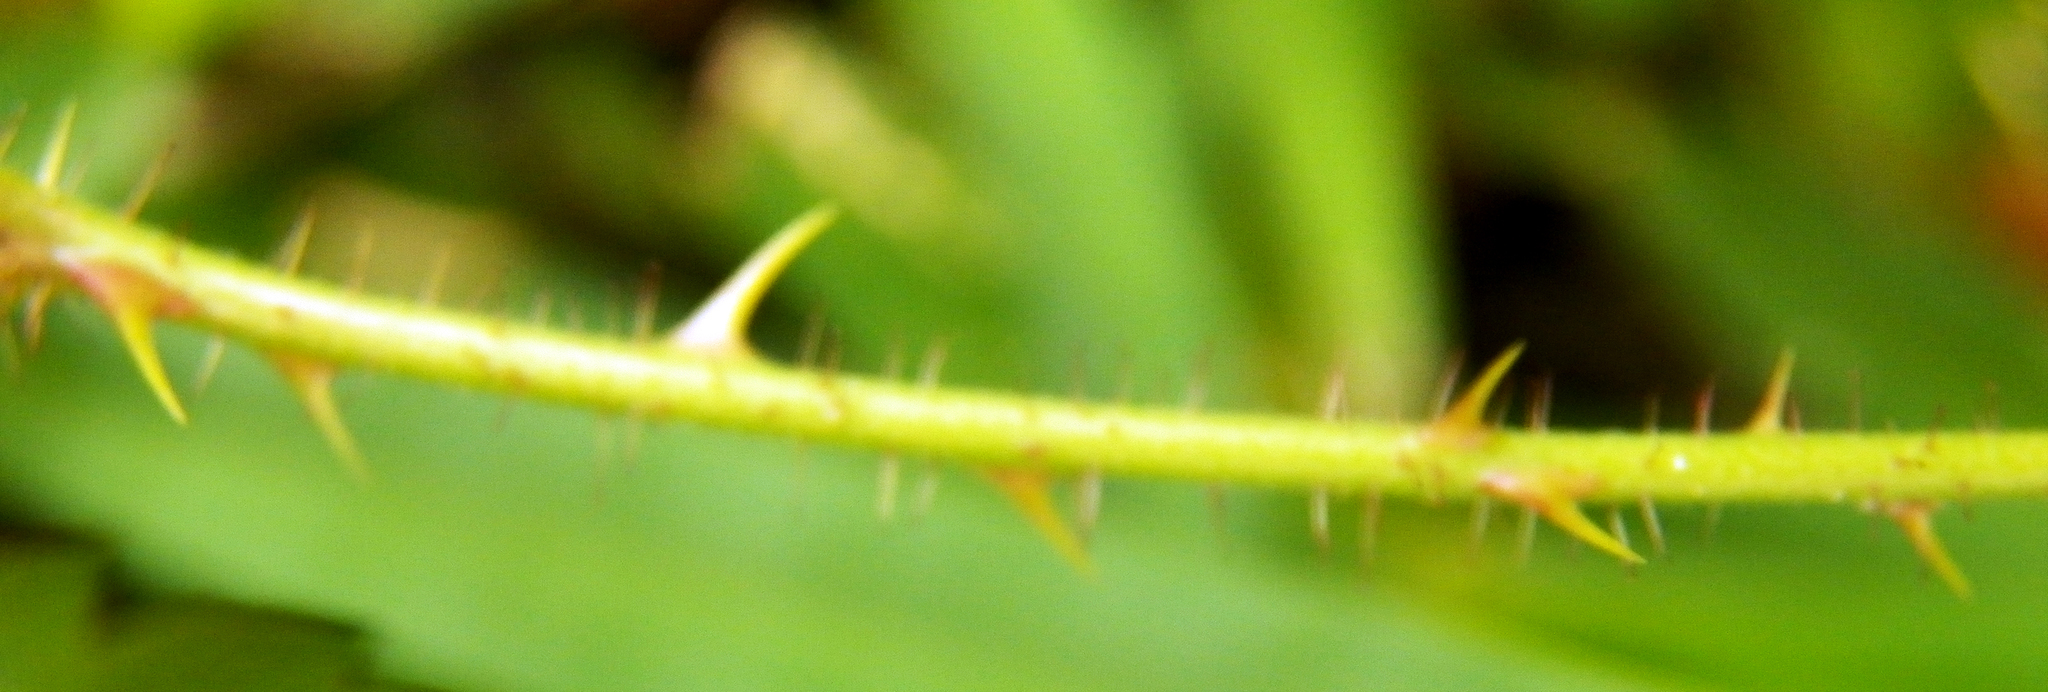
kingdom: Plantae
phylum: Tracheophyta
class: Magnoliopsida
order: Rosales
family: Rosaceae
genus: Rubus
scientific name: Rubus trivialis
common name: Southern dewberry
